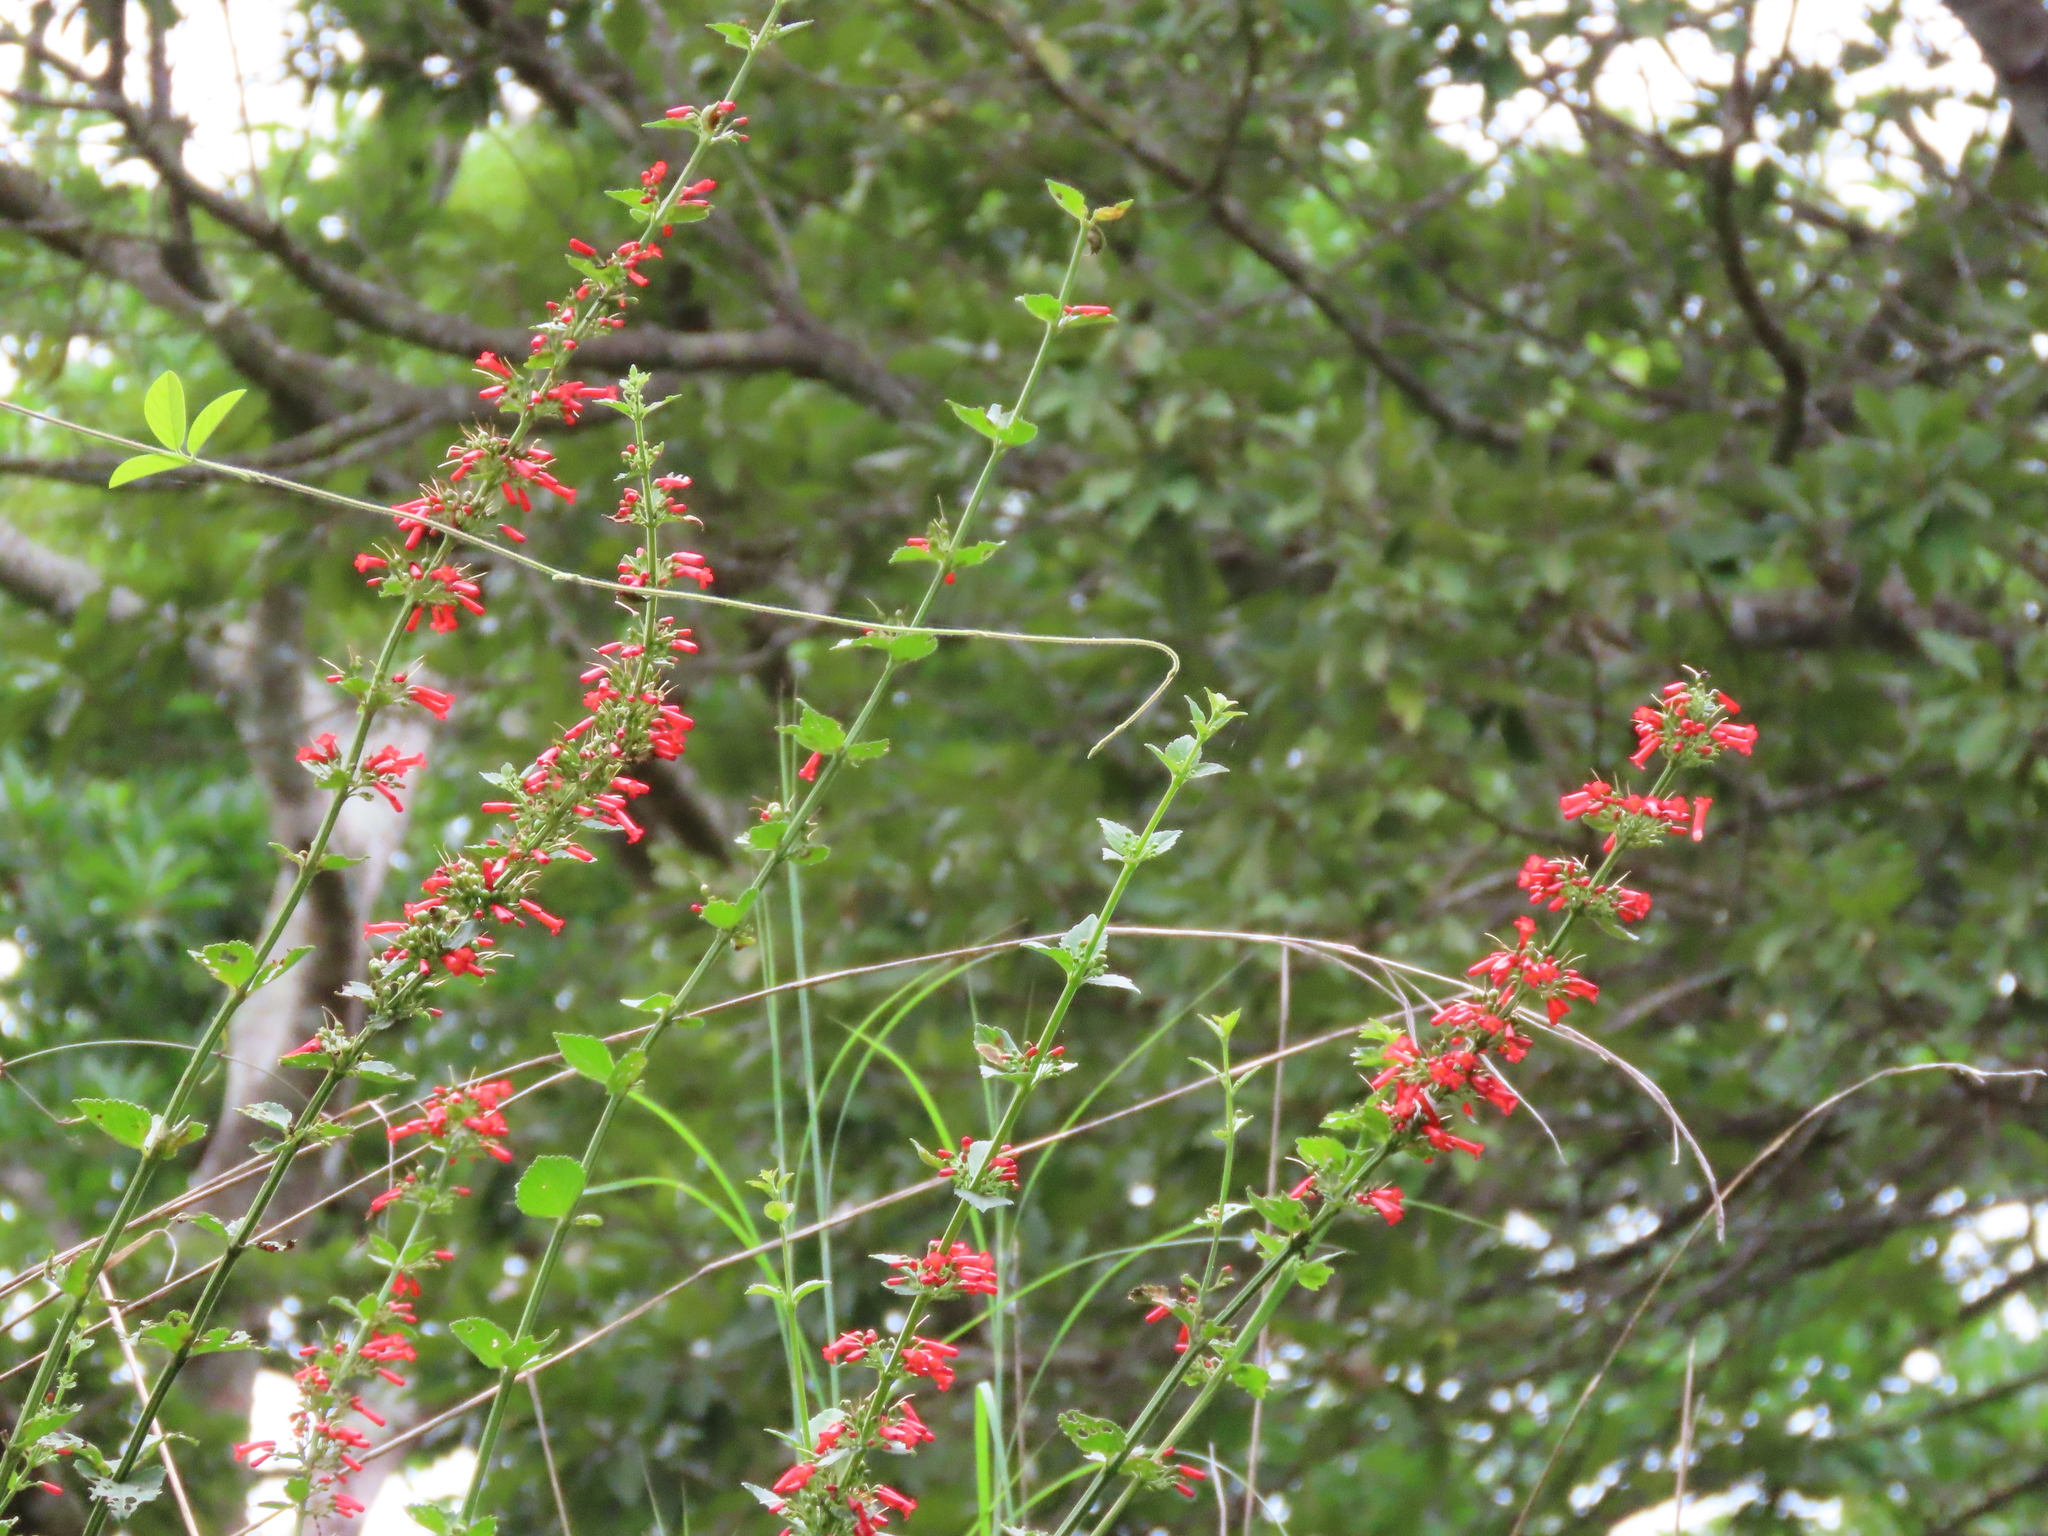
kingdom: Plantae
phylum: Tracheophyta
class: Magnoliopsida
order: Lamiales
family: Plantaginaceae
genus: Russelia
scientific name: Russelia verticillata
